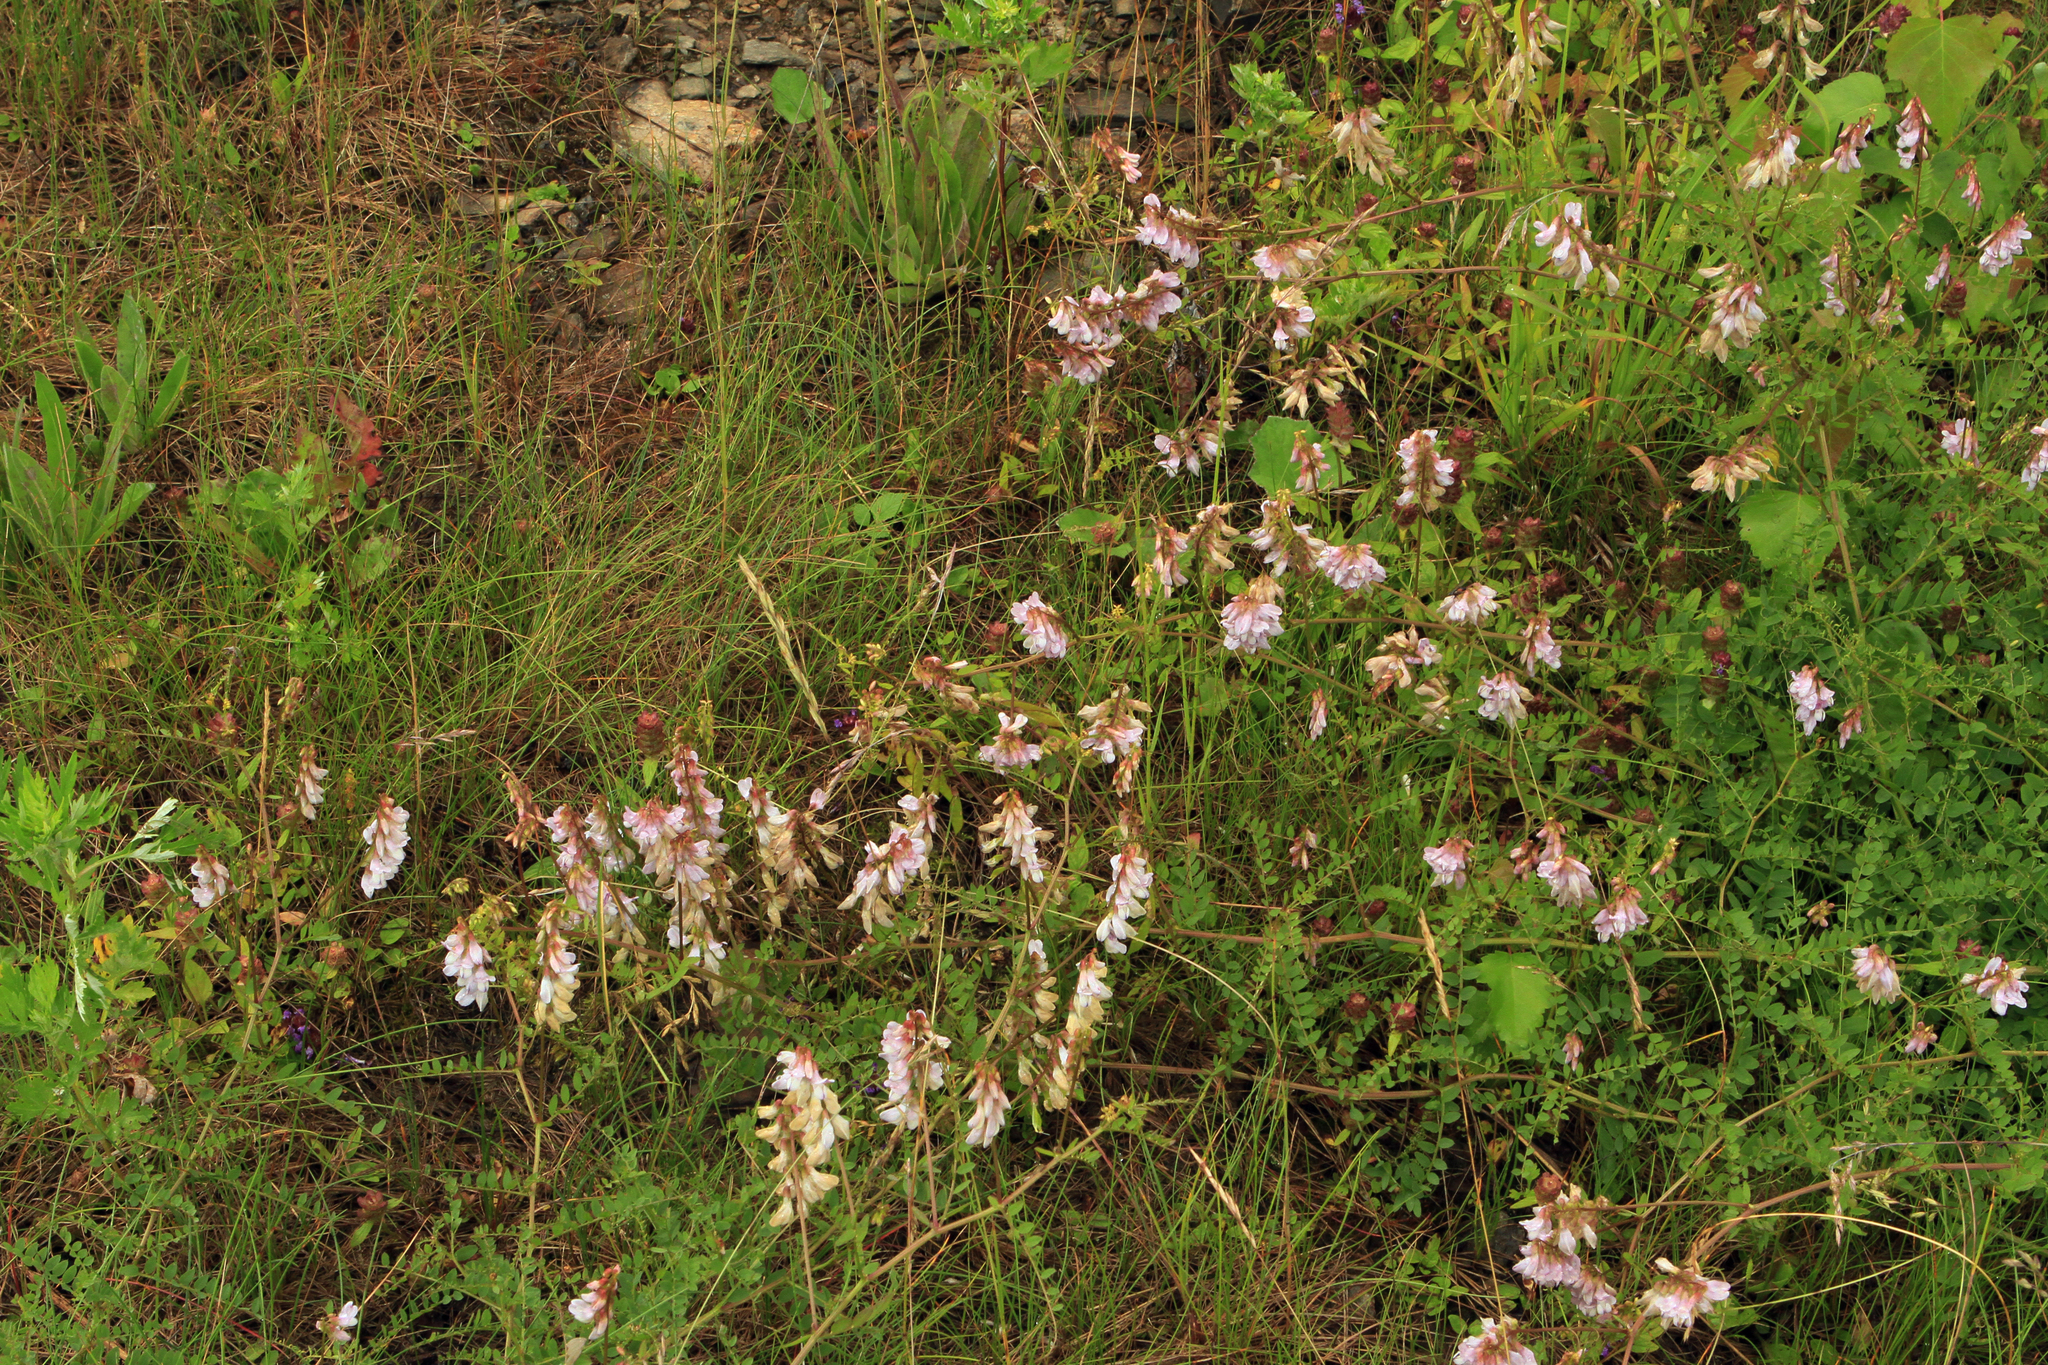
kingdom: Plantae
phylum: Tracheophyta
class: Magnoliopsida
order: Fabales
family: Fabaceae
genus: Vicia
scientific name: Vicia sylvatica
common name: Wood vetch
